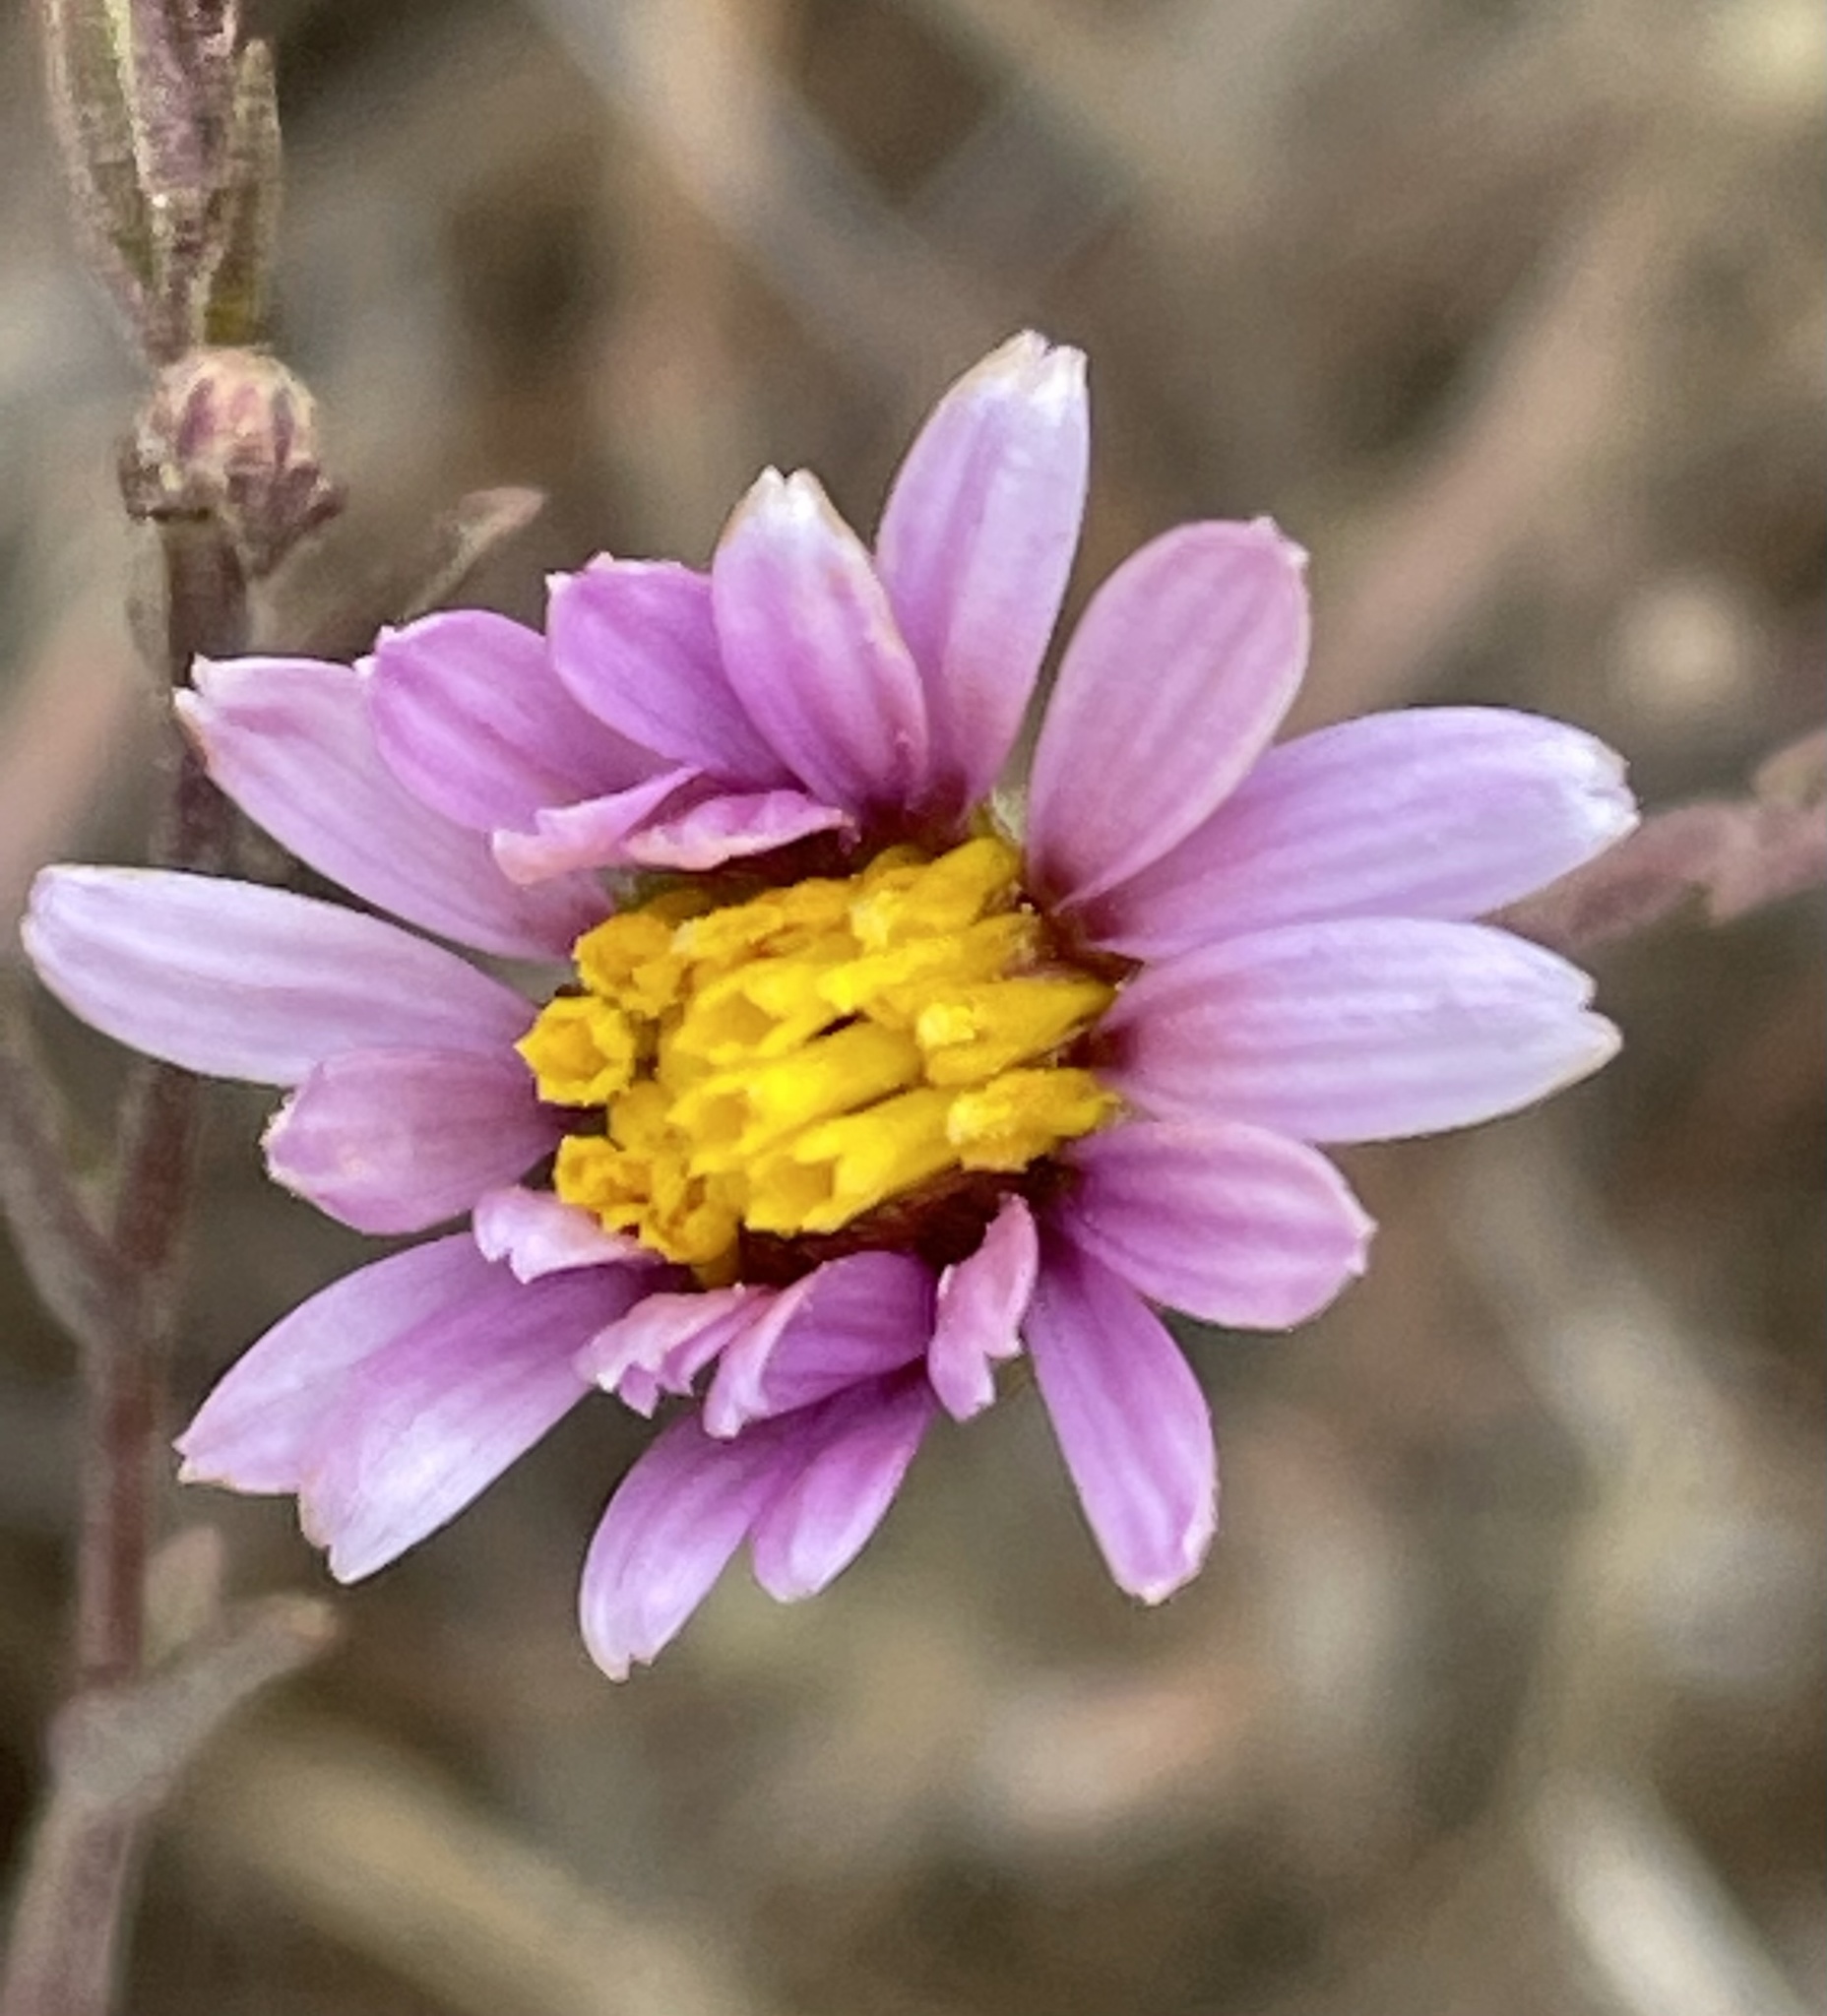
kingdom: Plantae
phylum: Tracheophyta
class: Magnoliopsida
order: Asterales
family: Asteraceae
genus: Corethrogyne
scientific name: Corethrogyne filaginifolia
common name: Sand-aster
